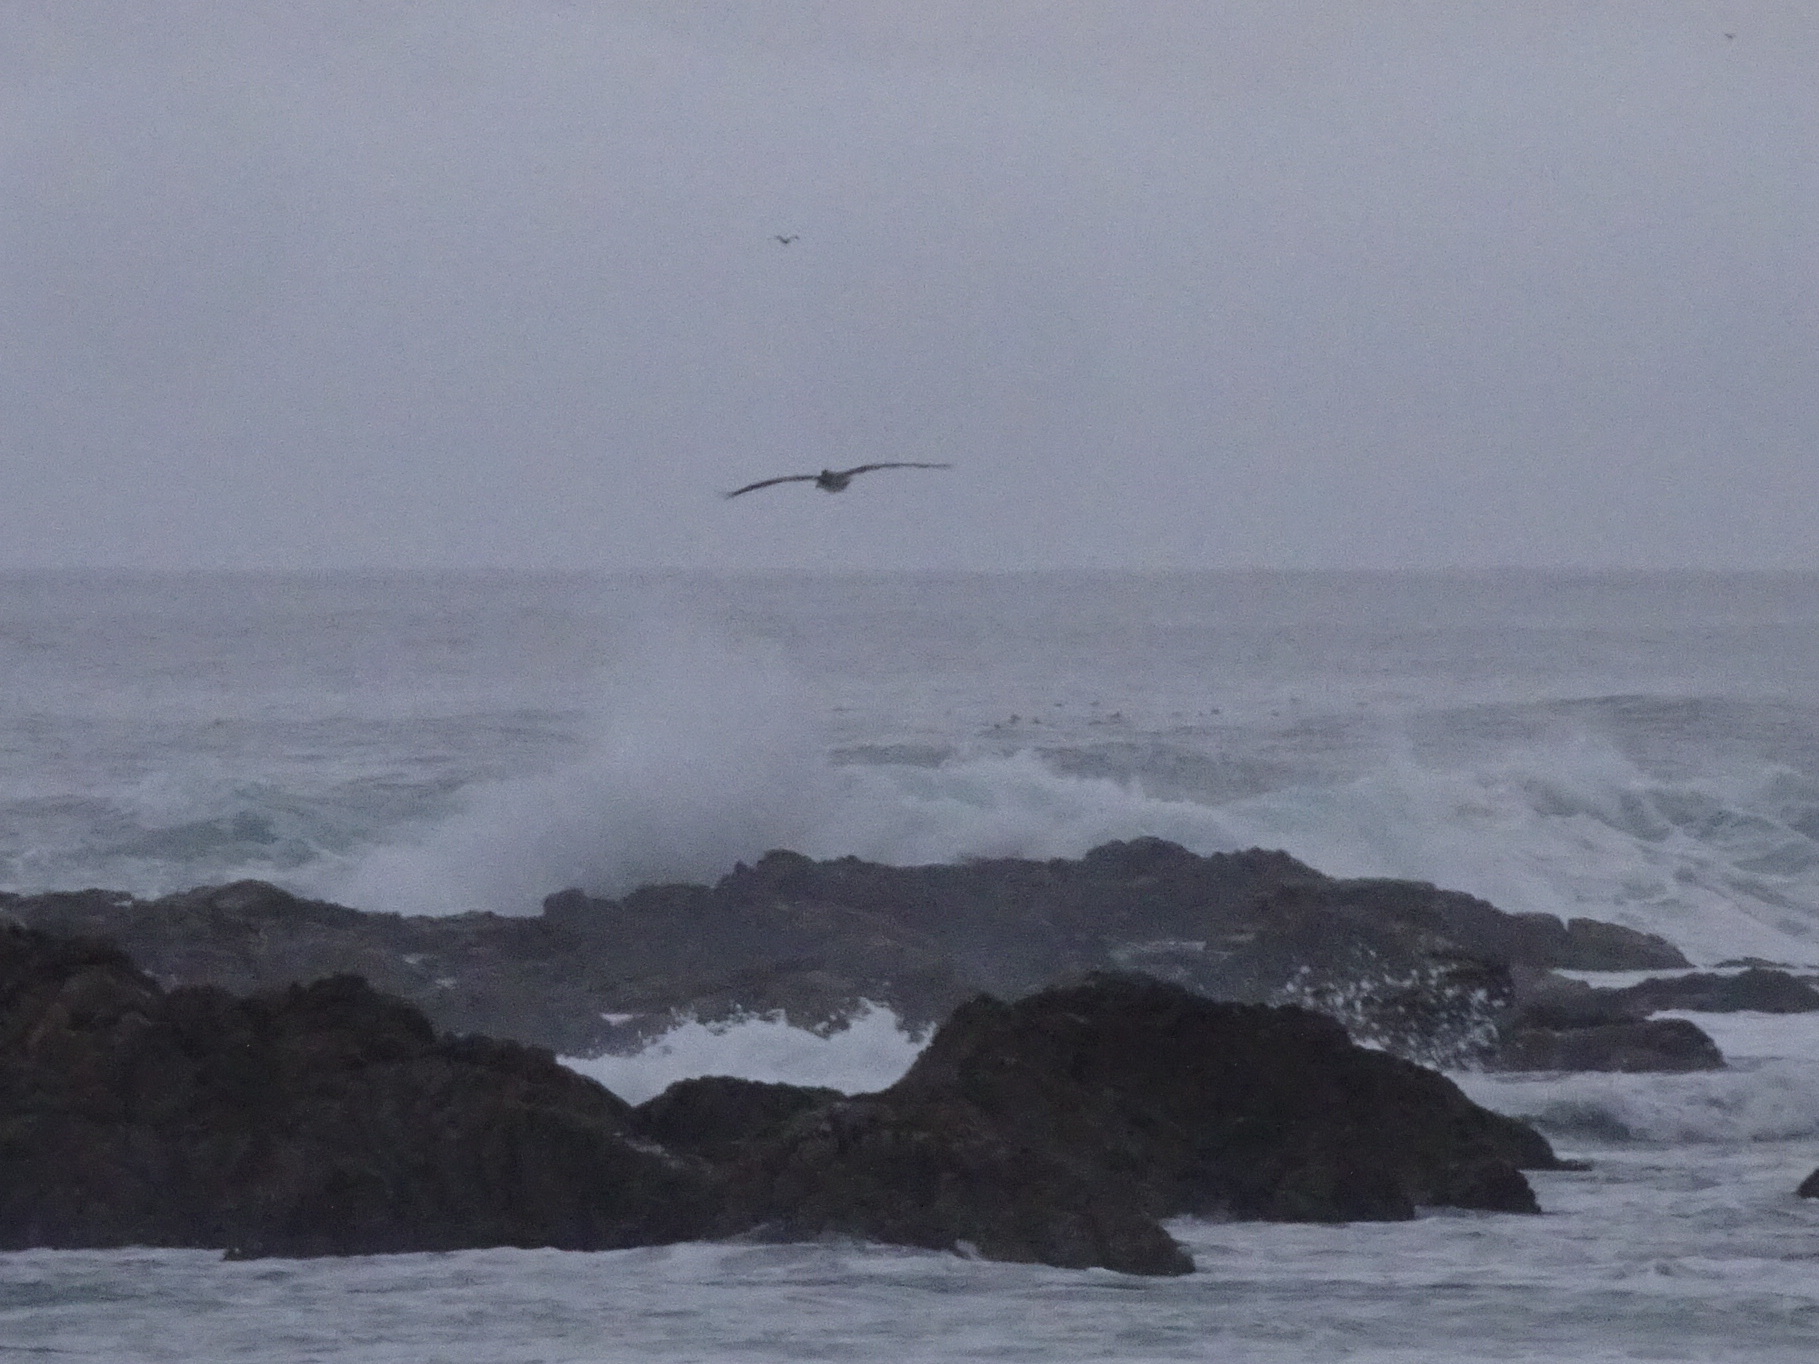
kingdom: Animalia
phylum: Chordata
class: Aves
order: Pelecaniformes
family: Pelecanidae
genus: Pelecanus
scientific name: Pelecanus occidentalis
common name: Brown pelican
